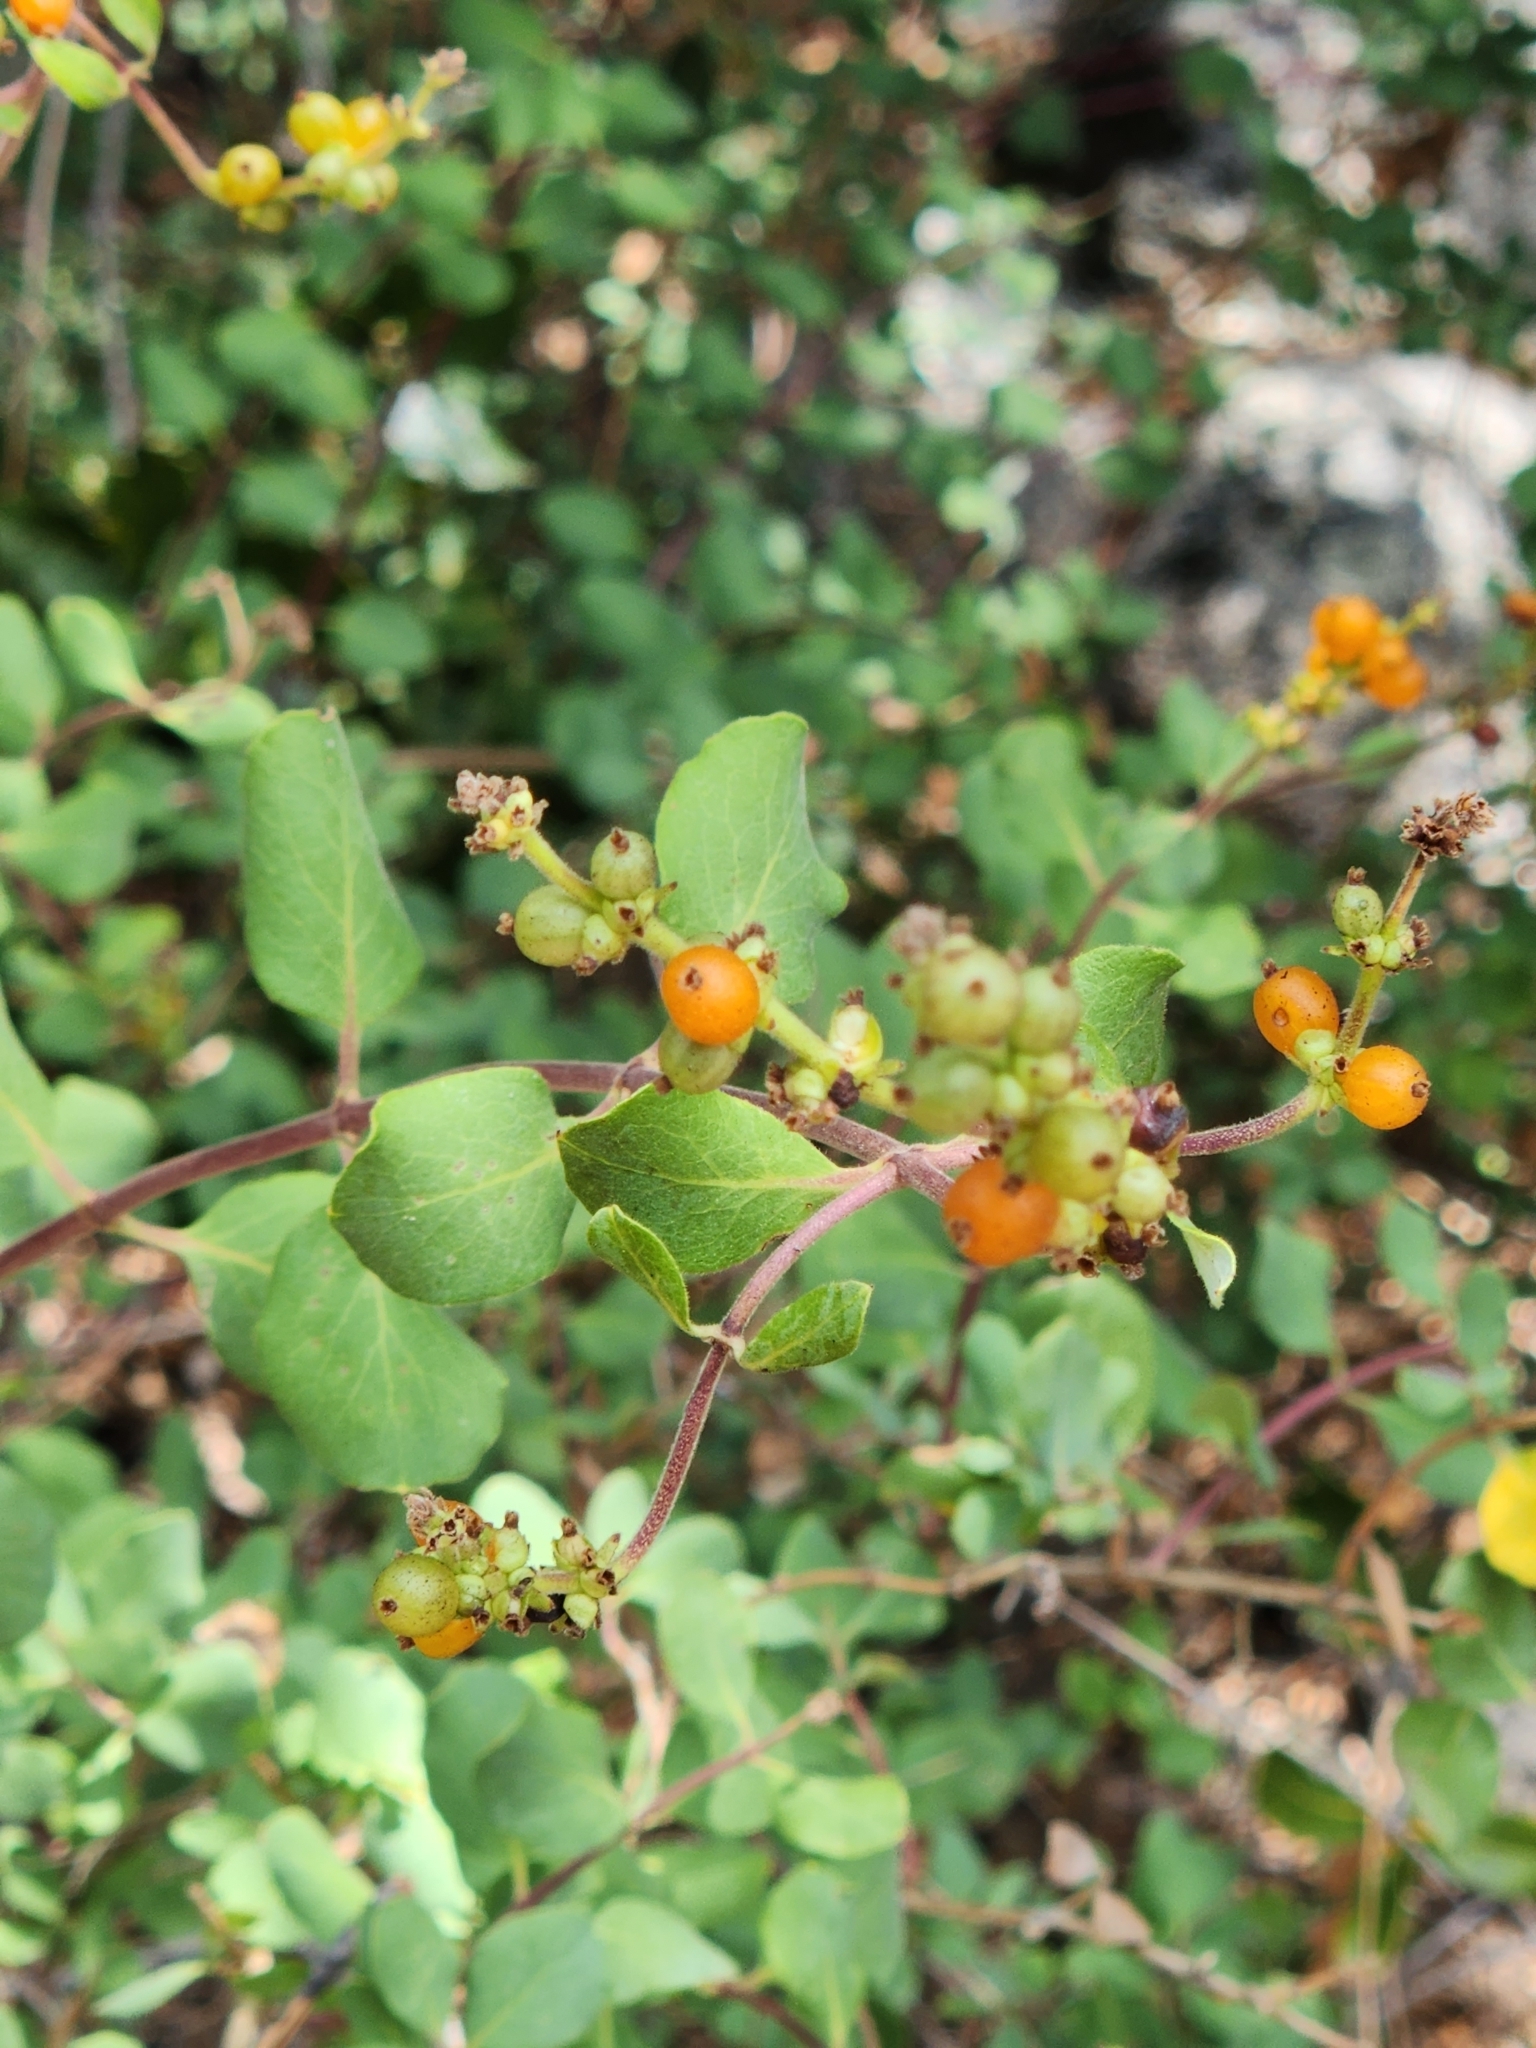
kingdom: Plantae
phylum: Tracheophyta
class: Magnoliopsida
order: Dipsacales
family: Caprifoliaceae
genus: Lonicera
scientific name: Lonicera subspicata
